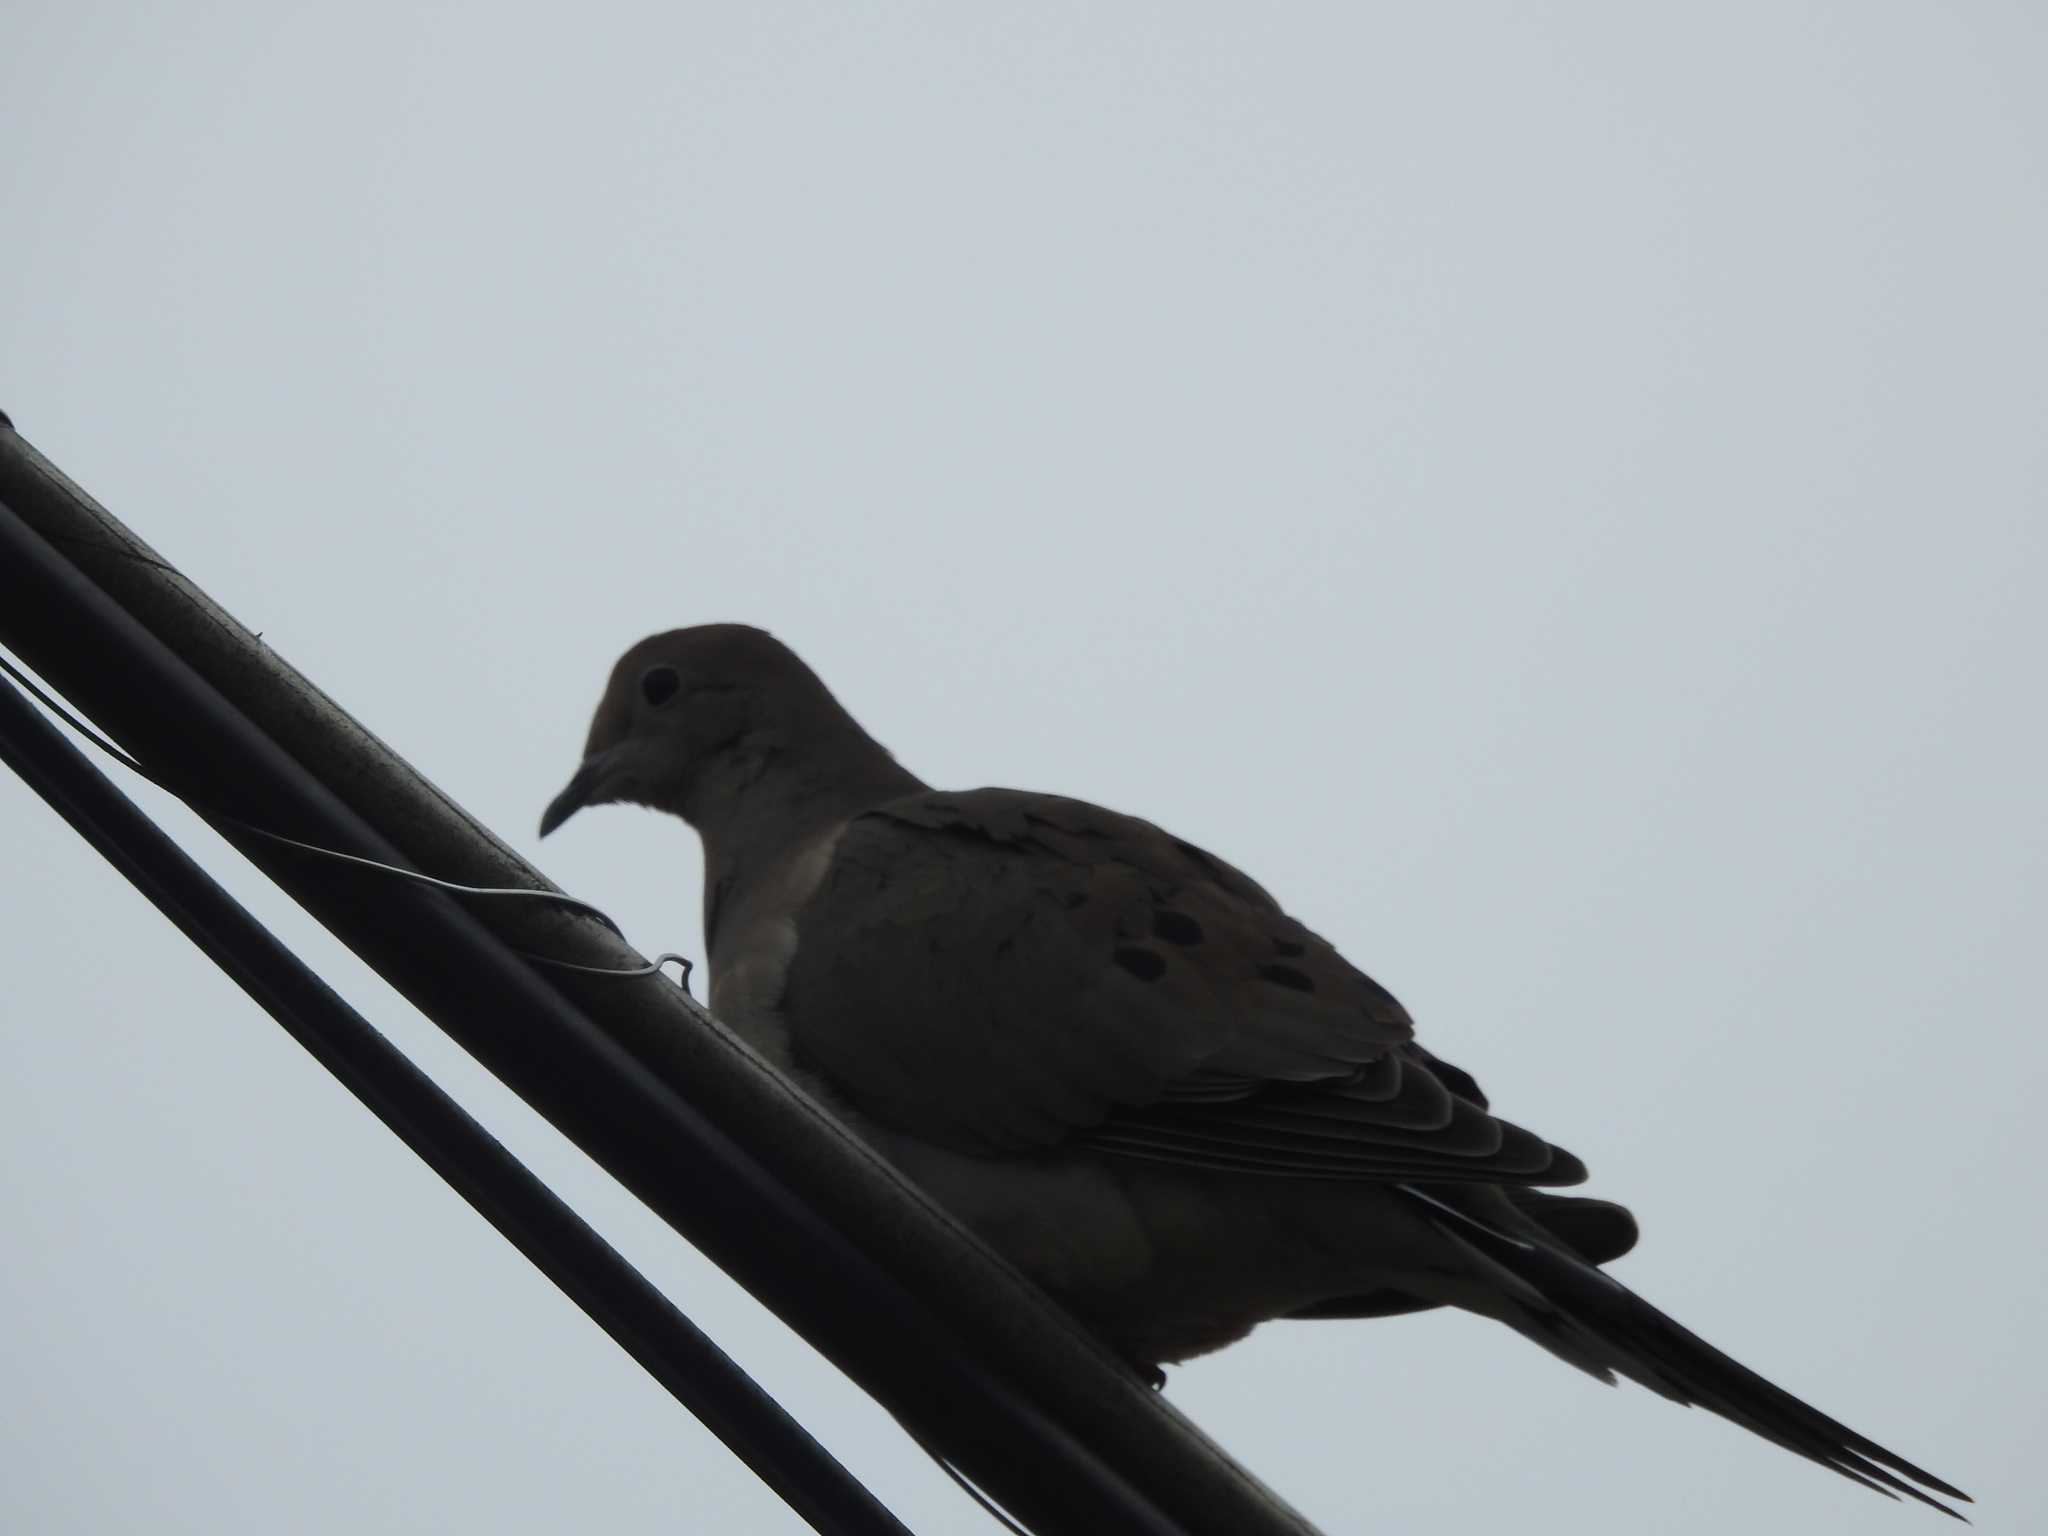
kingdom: Animalia
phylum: Chordata
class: Aves
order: Columbiformes
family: Columbidae
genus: Zenaida
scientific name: Zenaida macroura
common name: Mourning dove
